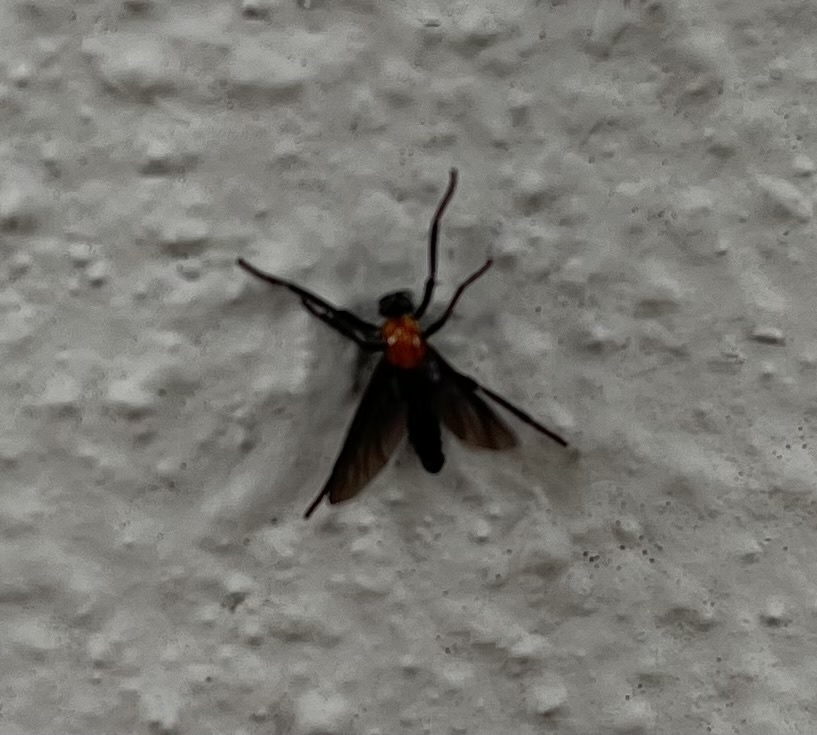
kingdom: Animalia
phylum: Arthropoda
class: Insecta
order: Diptera
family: Bibionidae
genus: Plecia
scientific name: Plecia nearctica
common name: March fly
